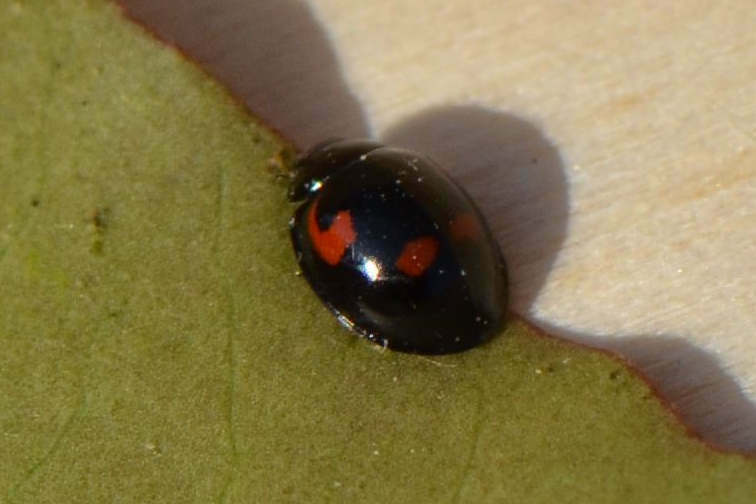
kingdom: Animalia
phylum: Arthropoda
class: Insecta
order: Coleoptera
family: Coccinellidae
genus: Brumus
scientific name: Brumus quadripustulatus
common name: Ladybird beetle
